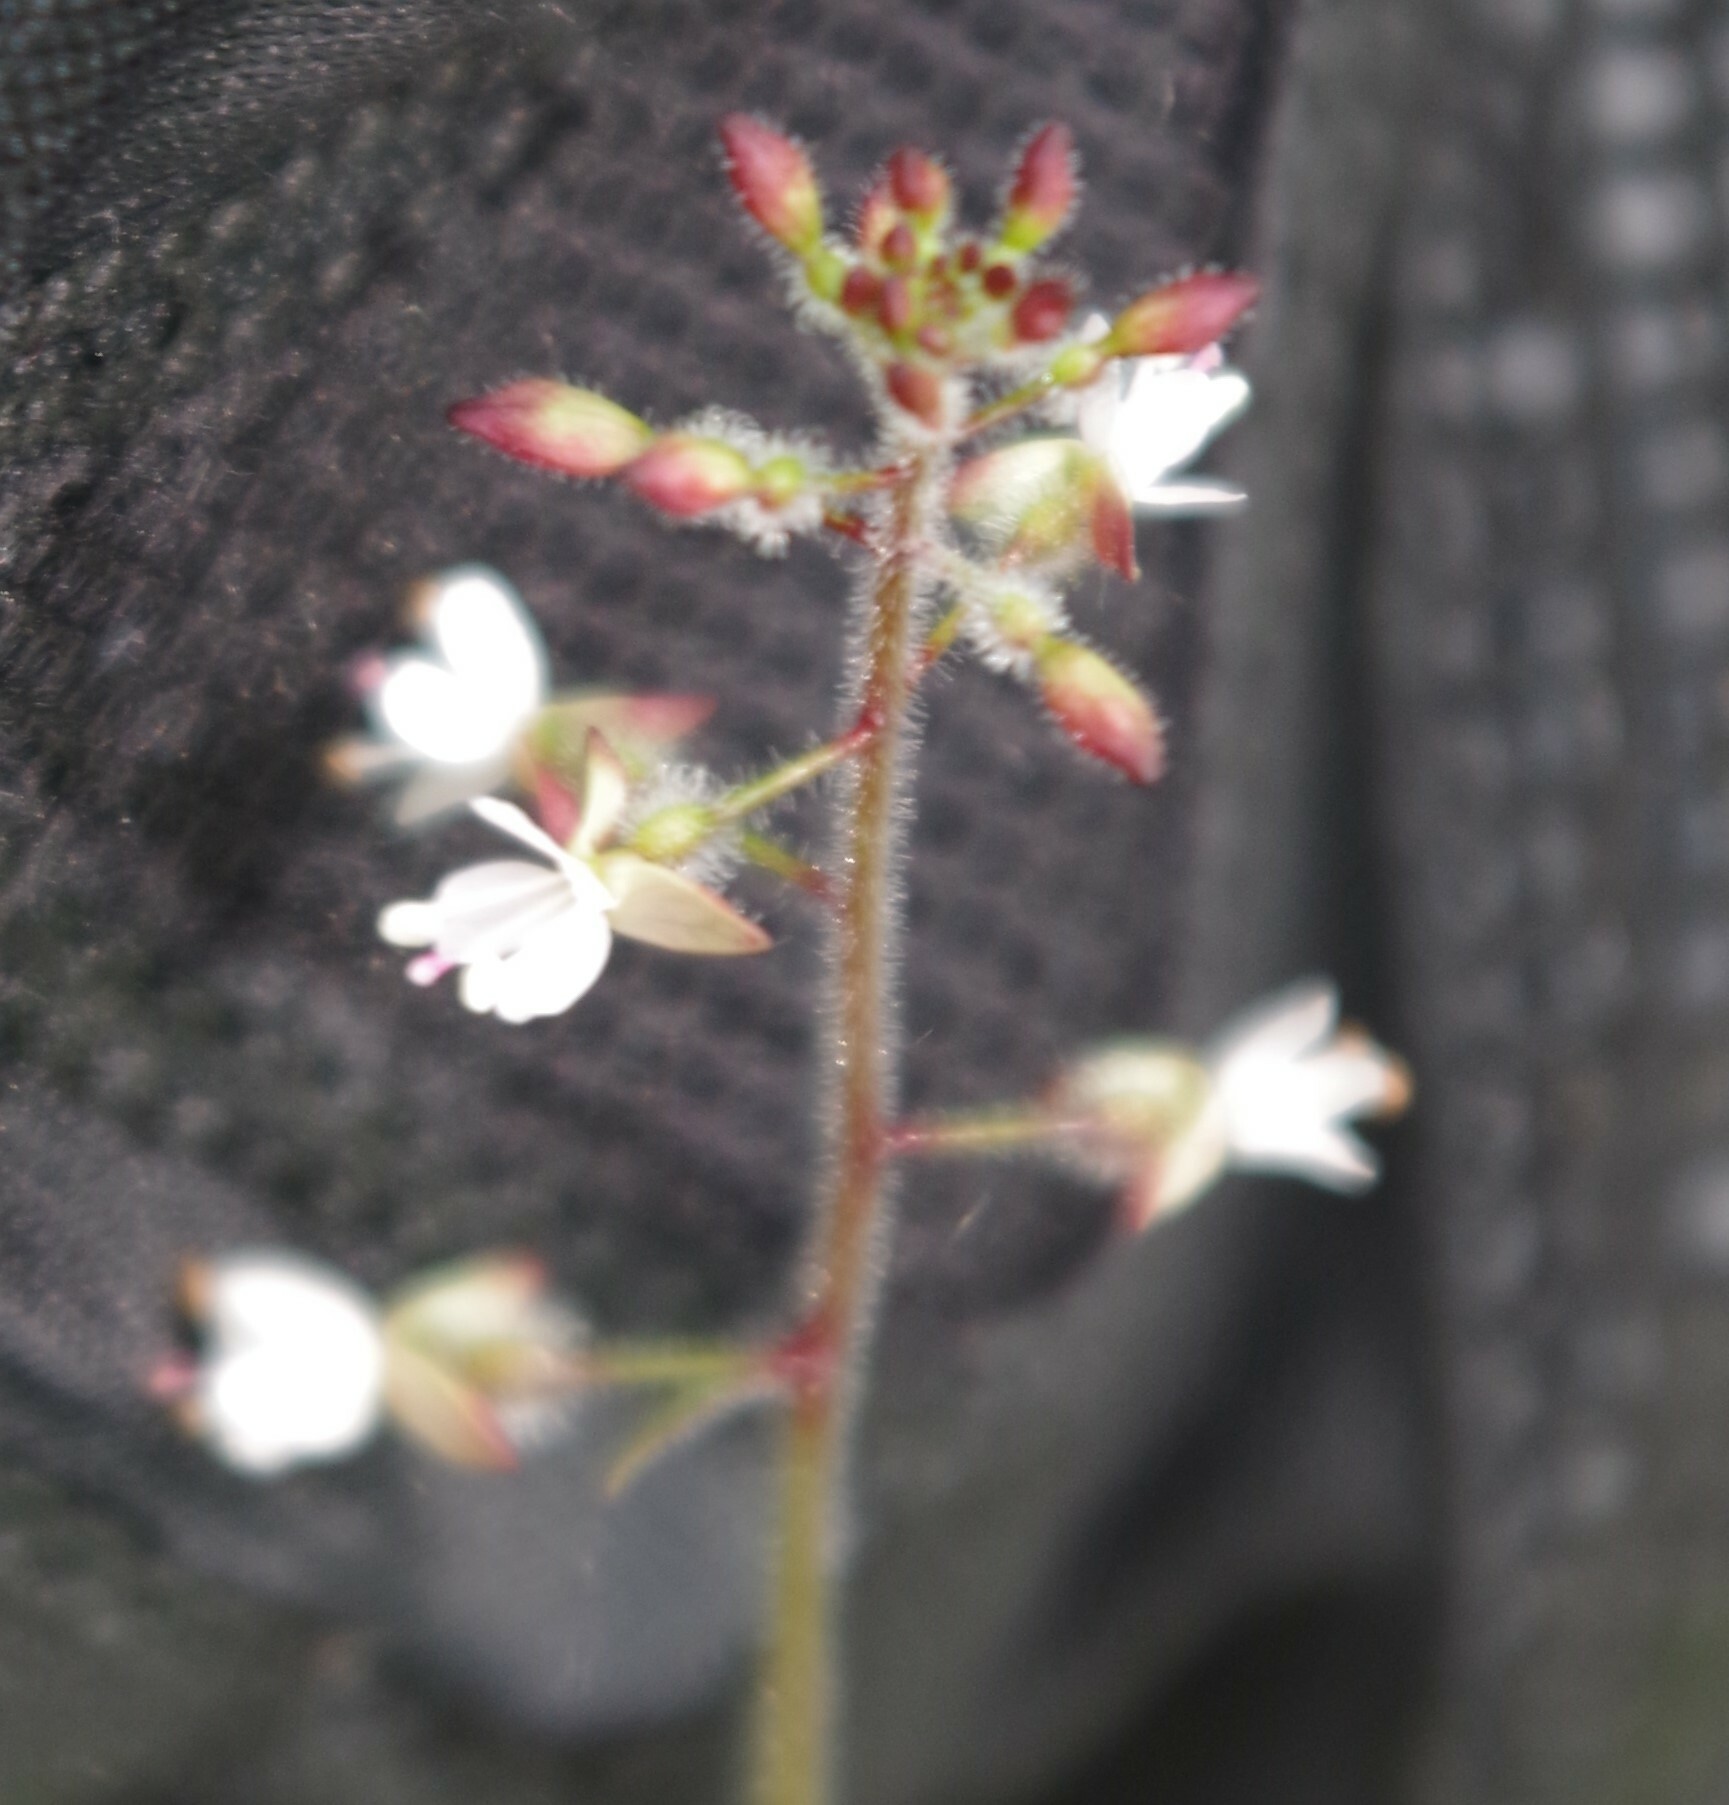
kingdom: Plantae
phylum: Tracheophyta
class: Magnoliopsida
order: Myrtales
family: Onagraceae
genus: Circaea
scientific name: Circaea lutetiana
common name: Enchanter's-nightshade
